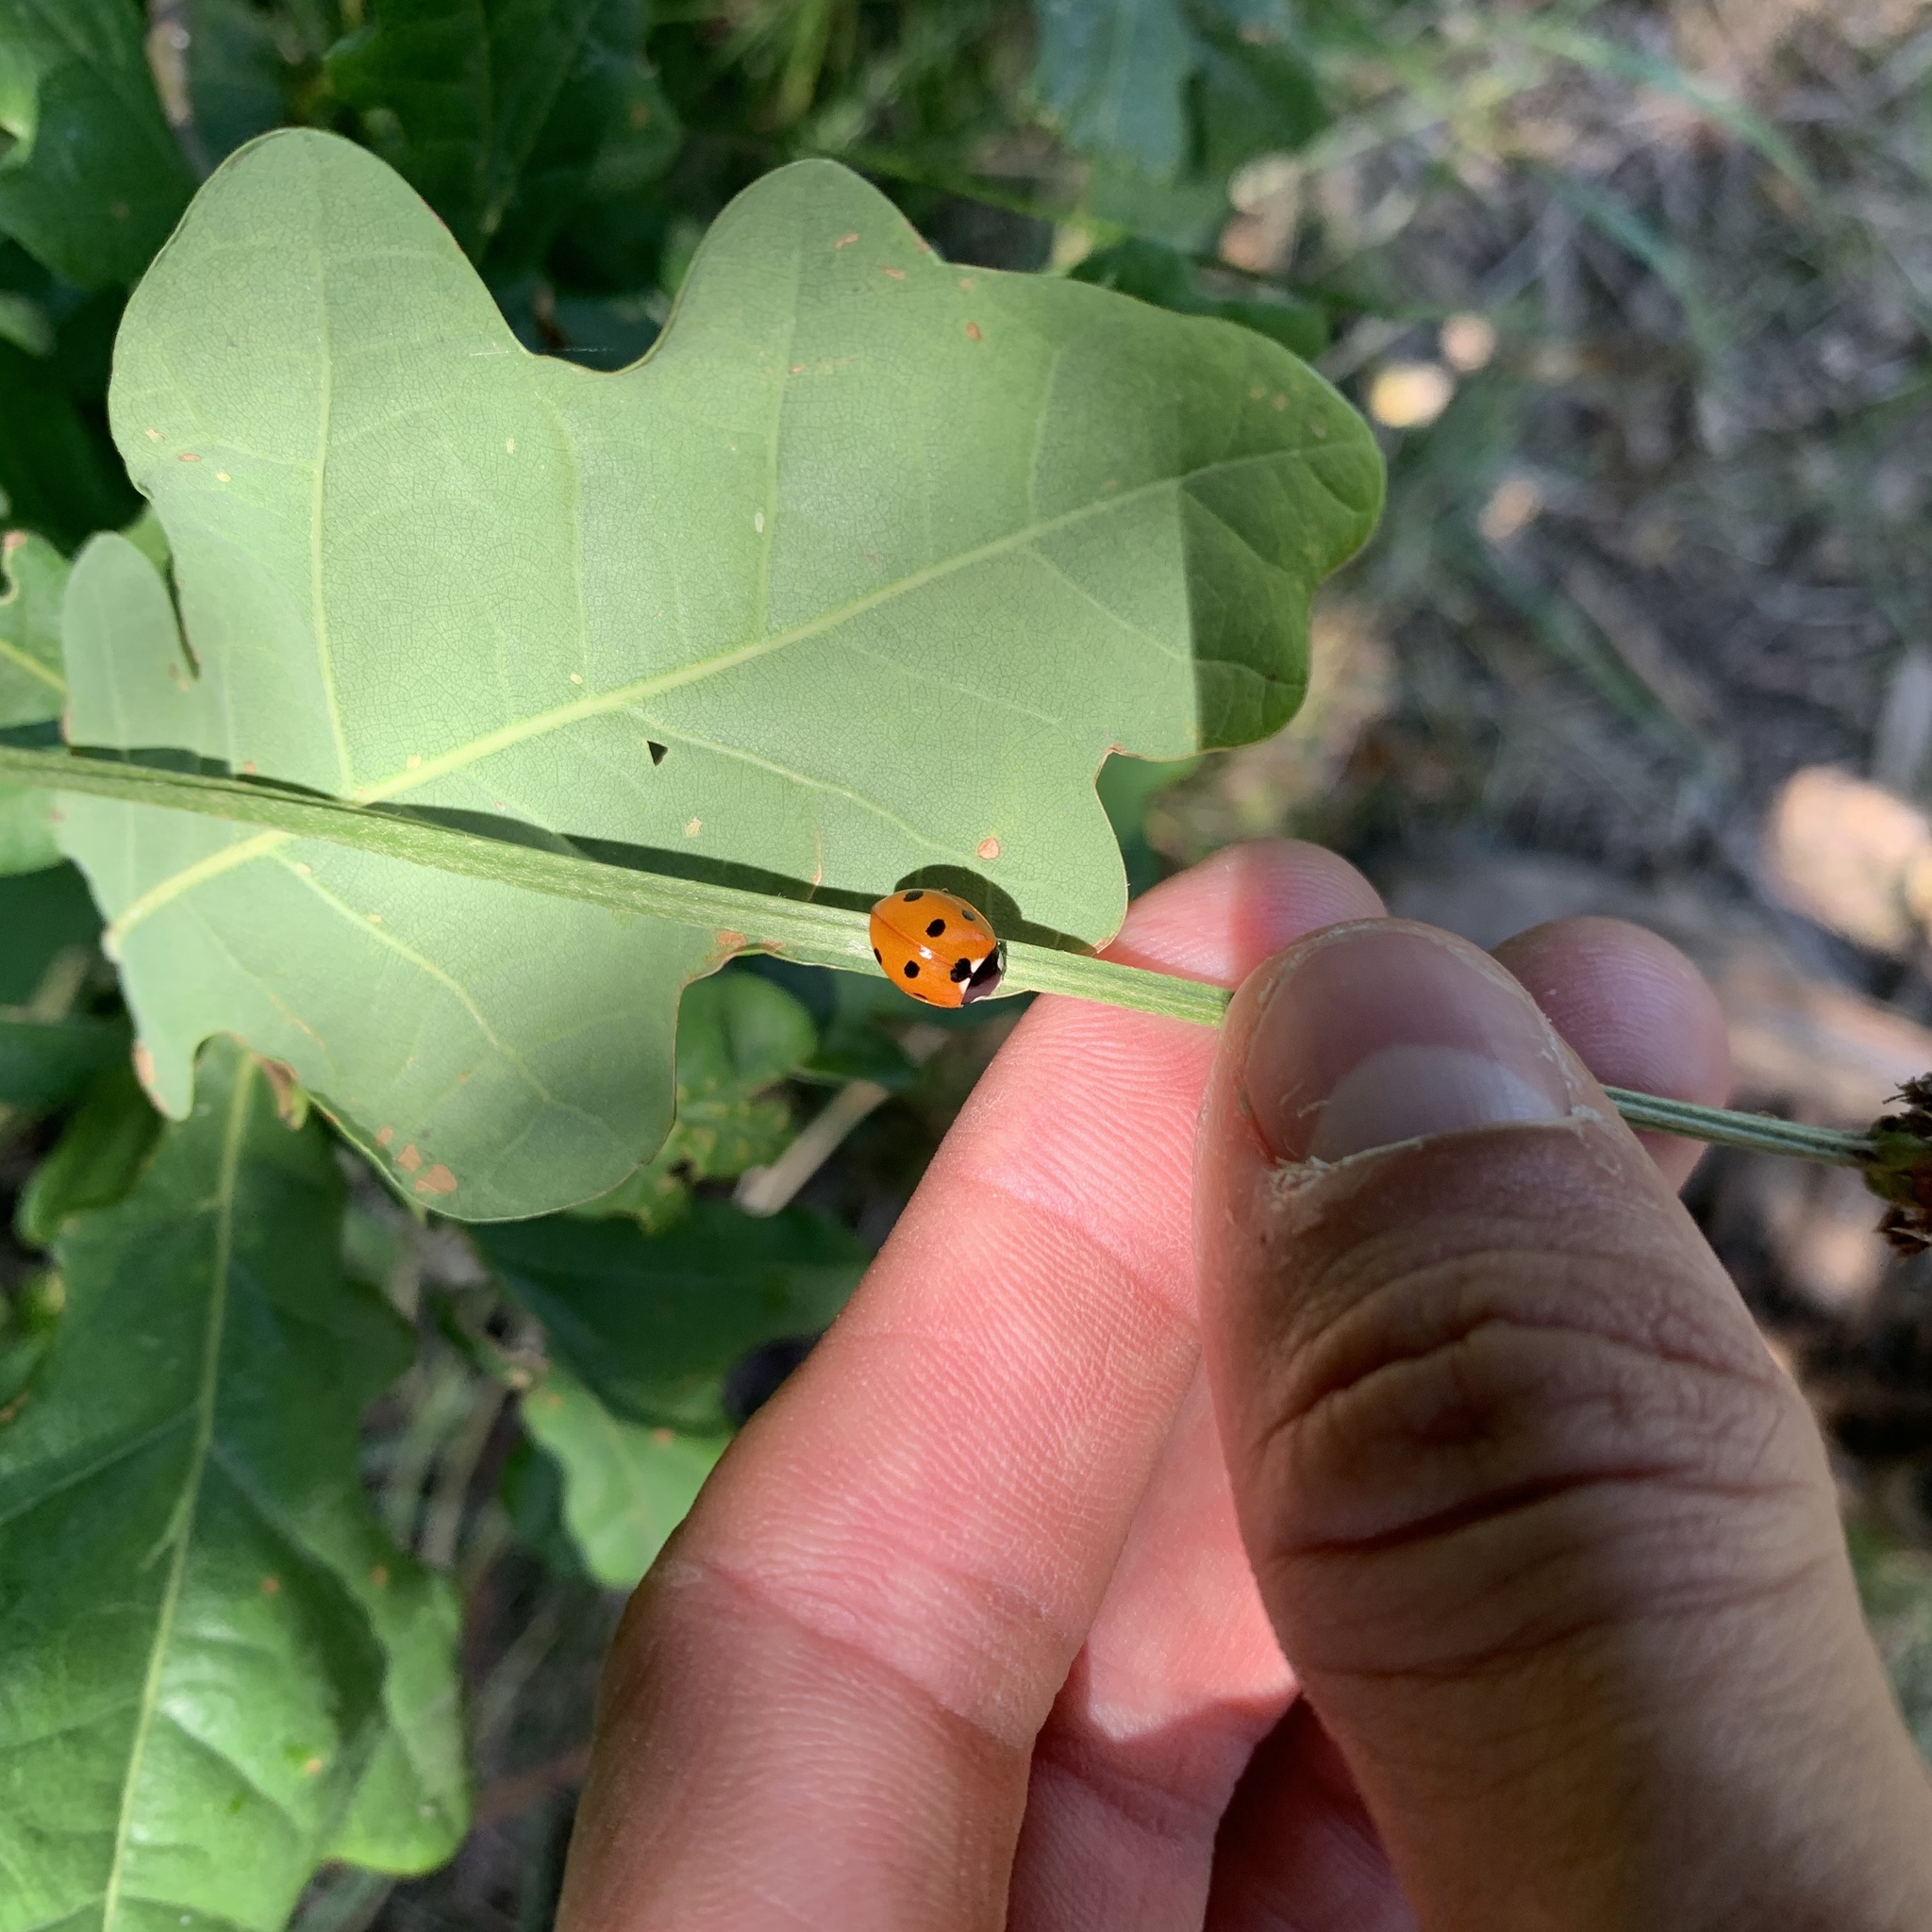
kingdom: Animalia
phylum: Arthropoda
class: Insecta
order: Coleoptera
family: Coccinellidae
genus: Coccinella
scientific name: Coccinella septempunctata
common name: Sevenspotted lady beetle
